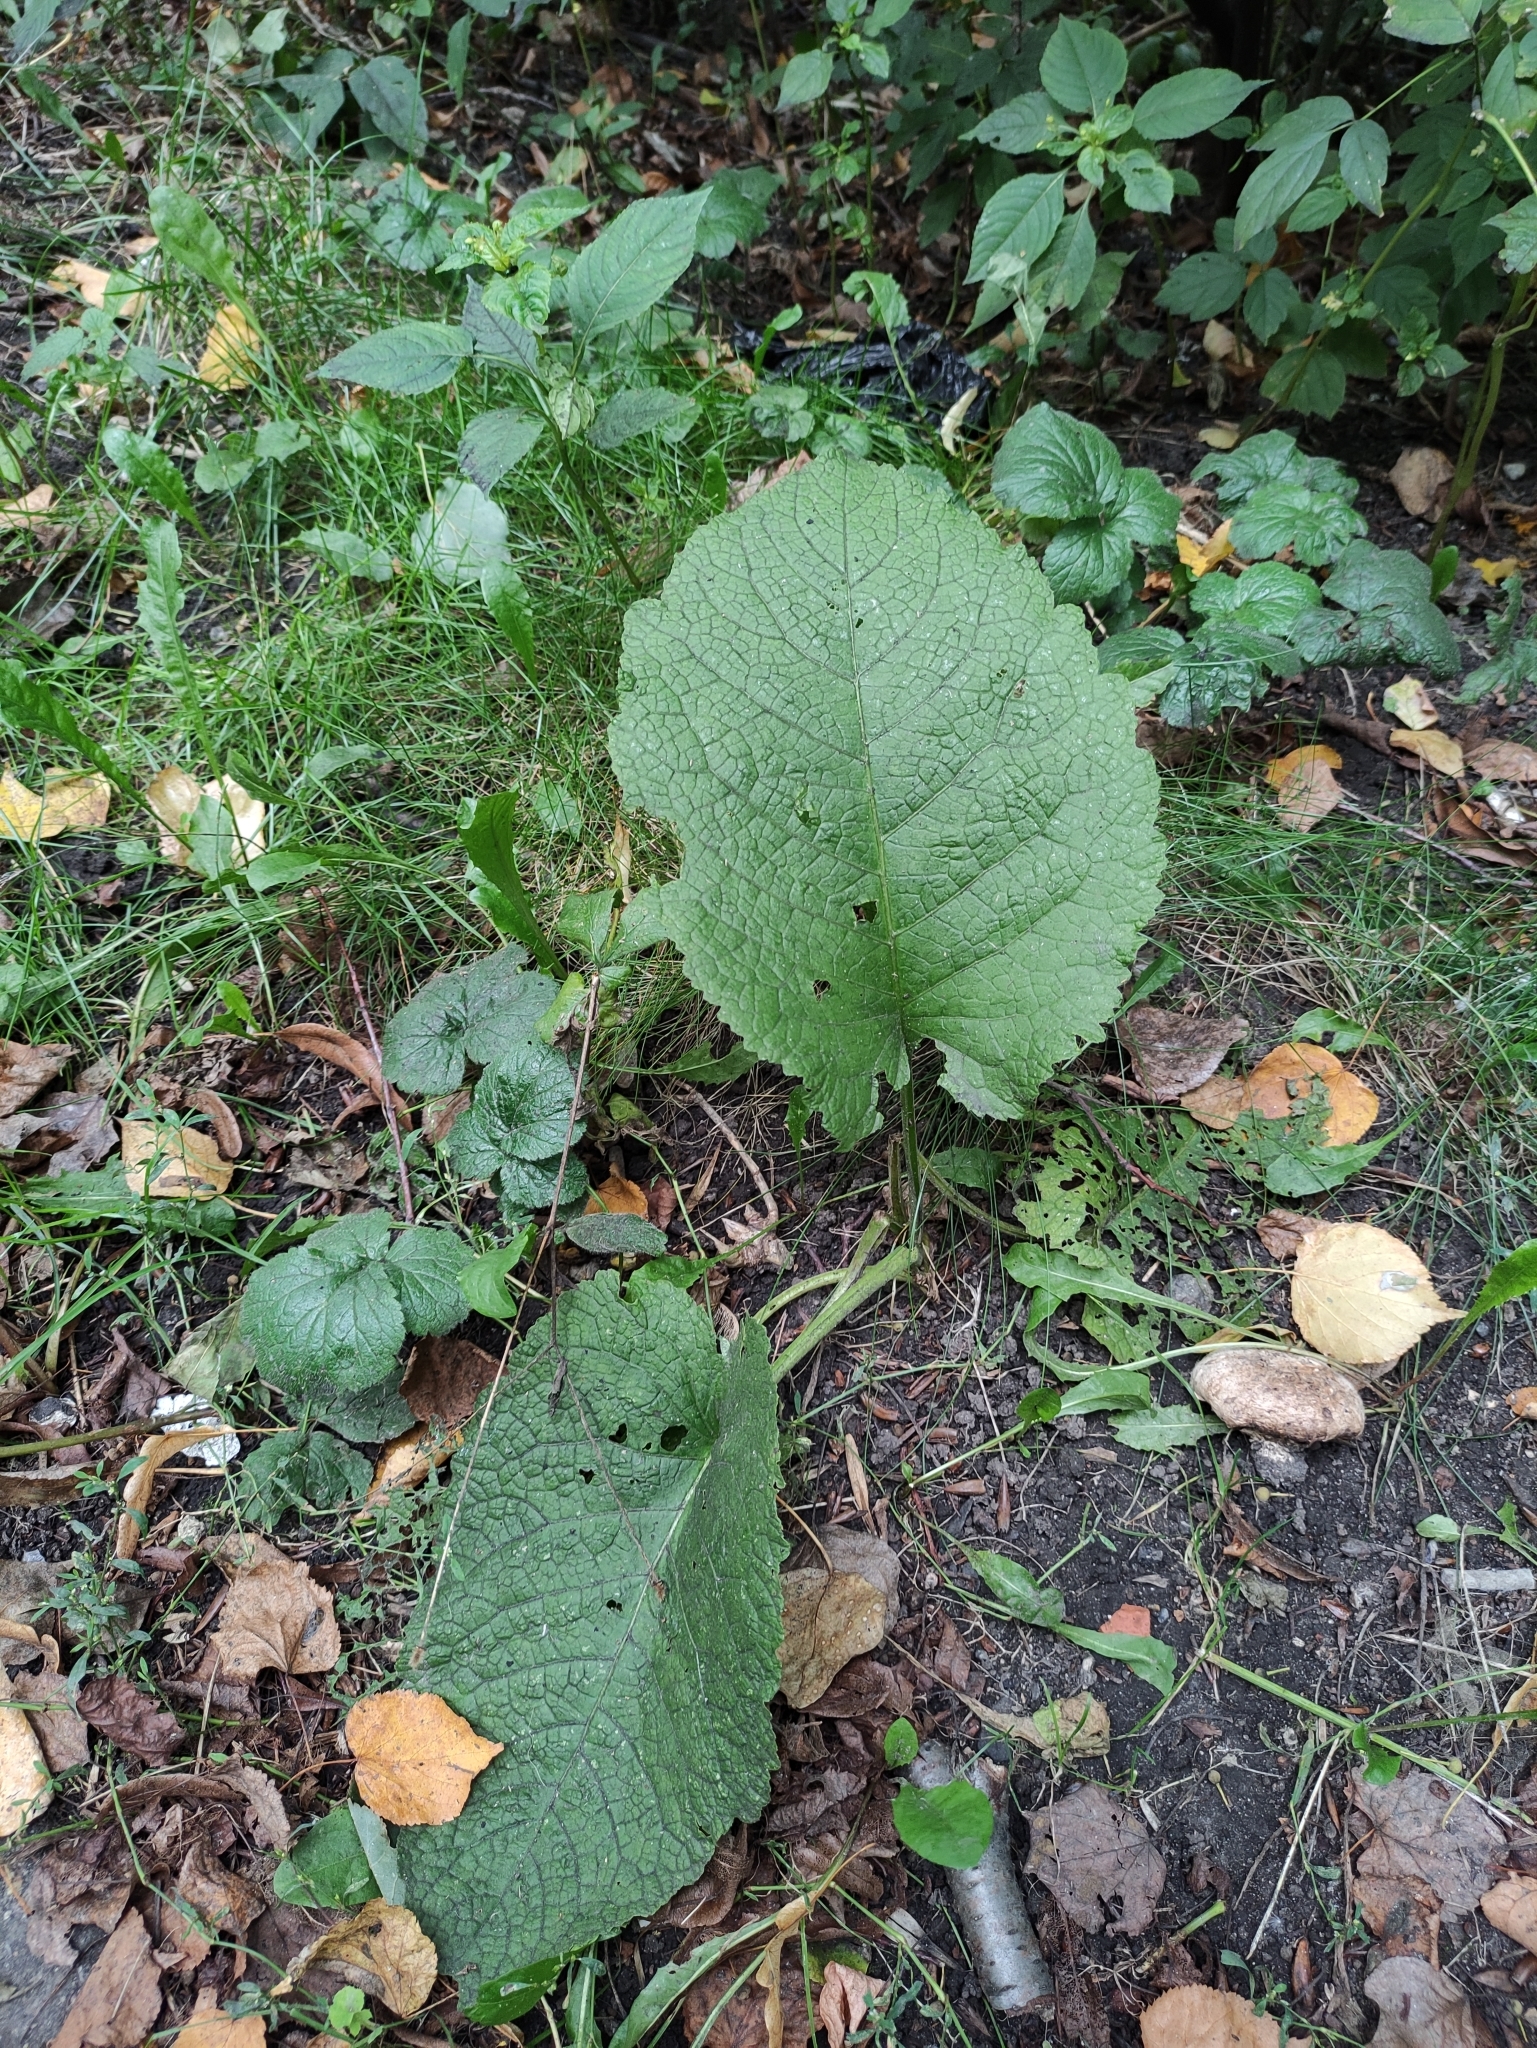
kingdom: Plantae
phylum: Tracheophyta
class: Magnoliopsida
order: Asterales
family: Asteraceae
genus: Telekia
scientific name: Telekia speciosa
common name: Yellow oxeye
